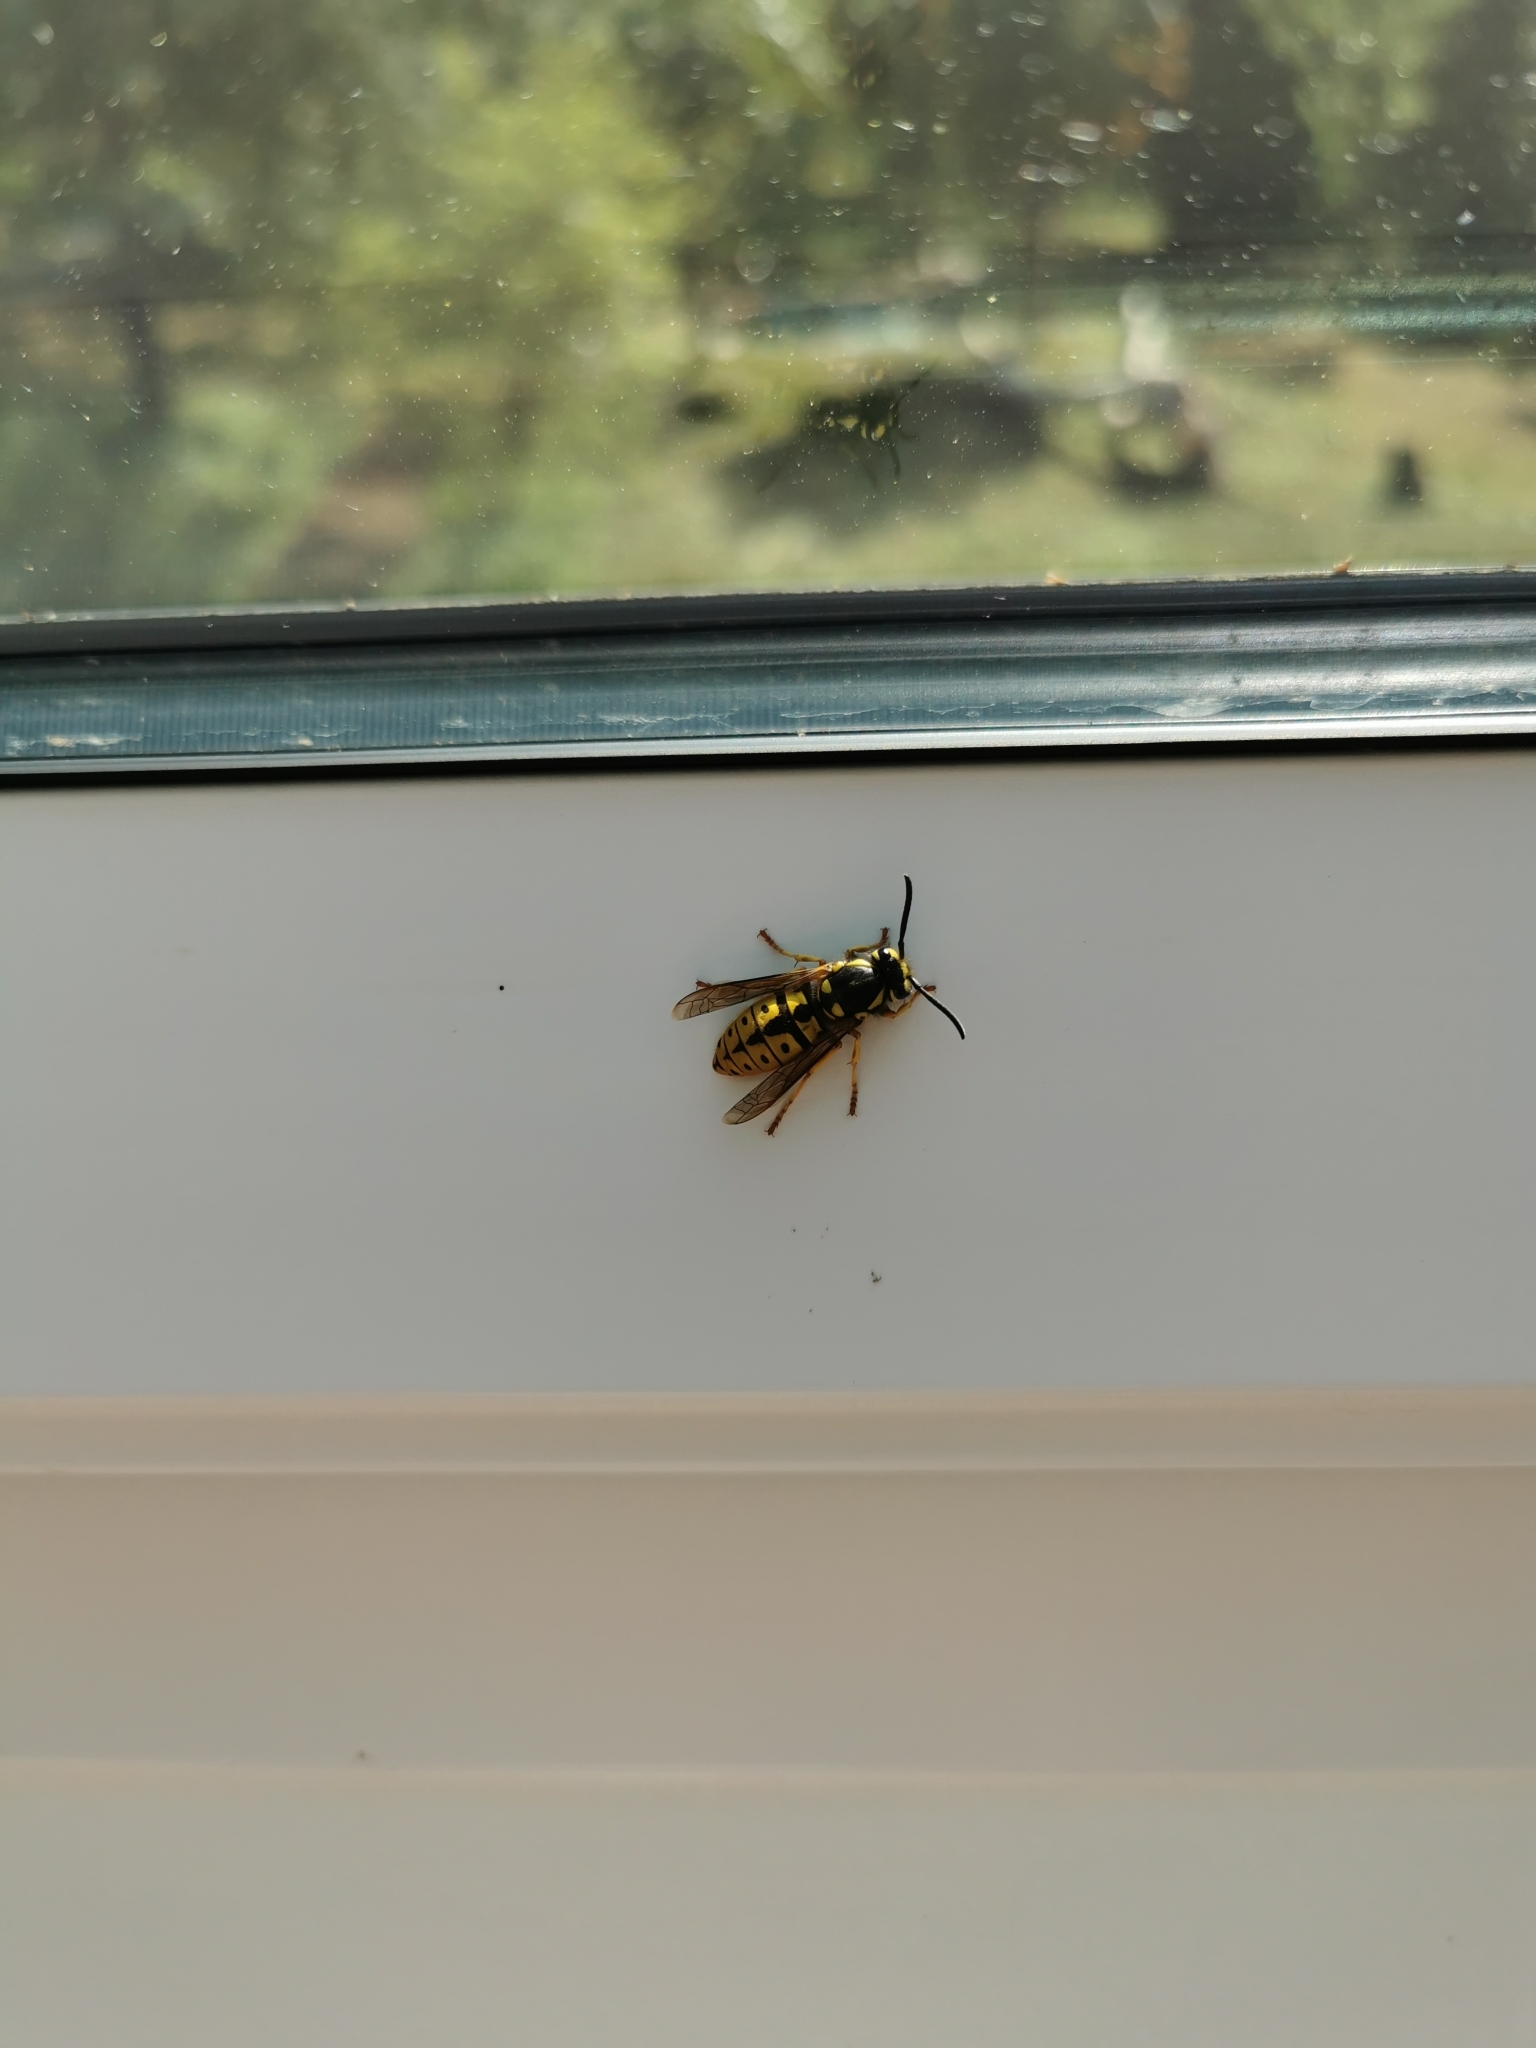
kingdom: Animalia
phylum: Arthropoda
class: Insecta
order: Hymenoptera
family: Vespidae
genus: Vespula
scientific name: Vespula germanica
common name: German wasp
